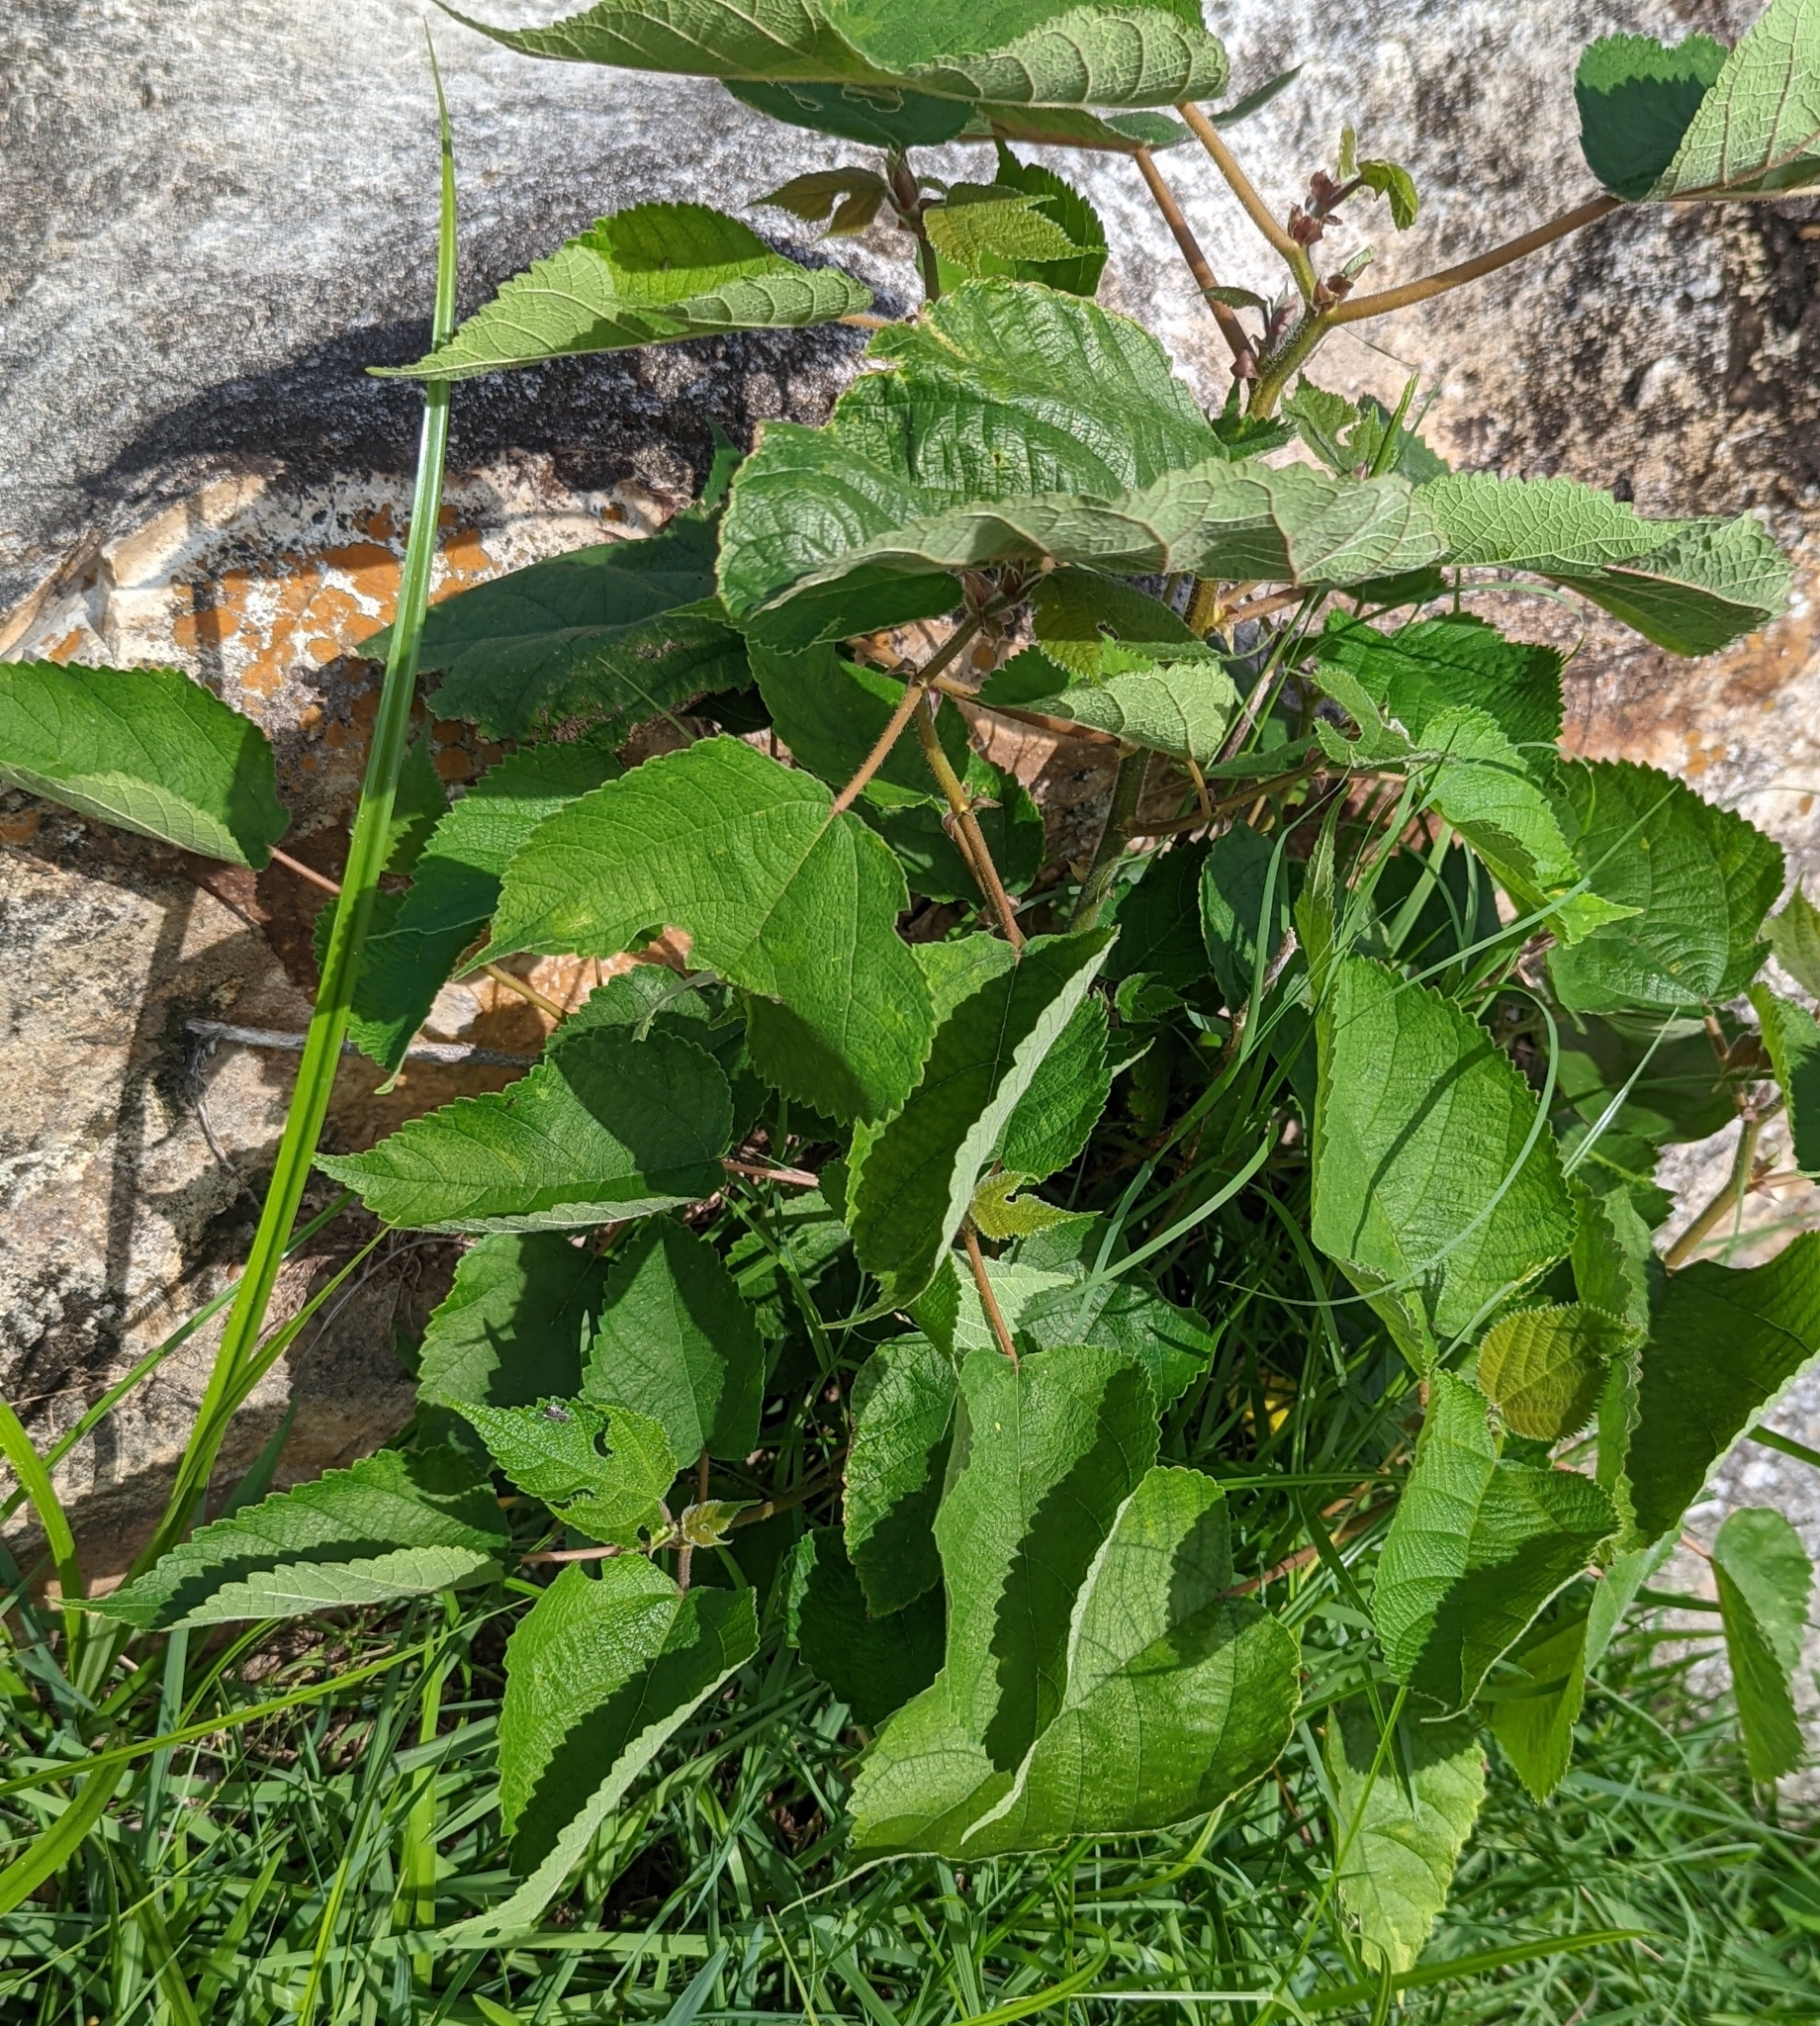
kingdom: Plantae
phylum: Tracheophyta
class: Magnoliopsida
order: Rosales
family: Moraceae
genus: Broussonetia
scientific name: Broussonetia papyrifera
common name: Paper mulberry
